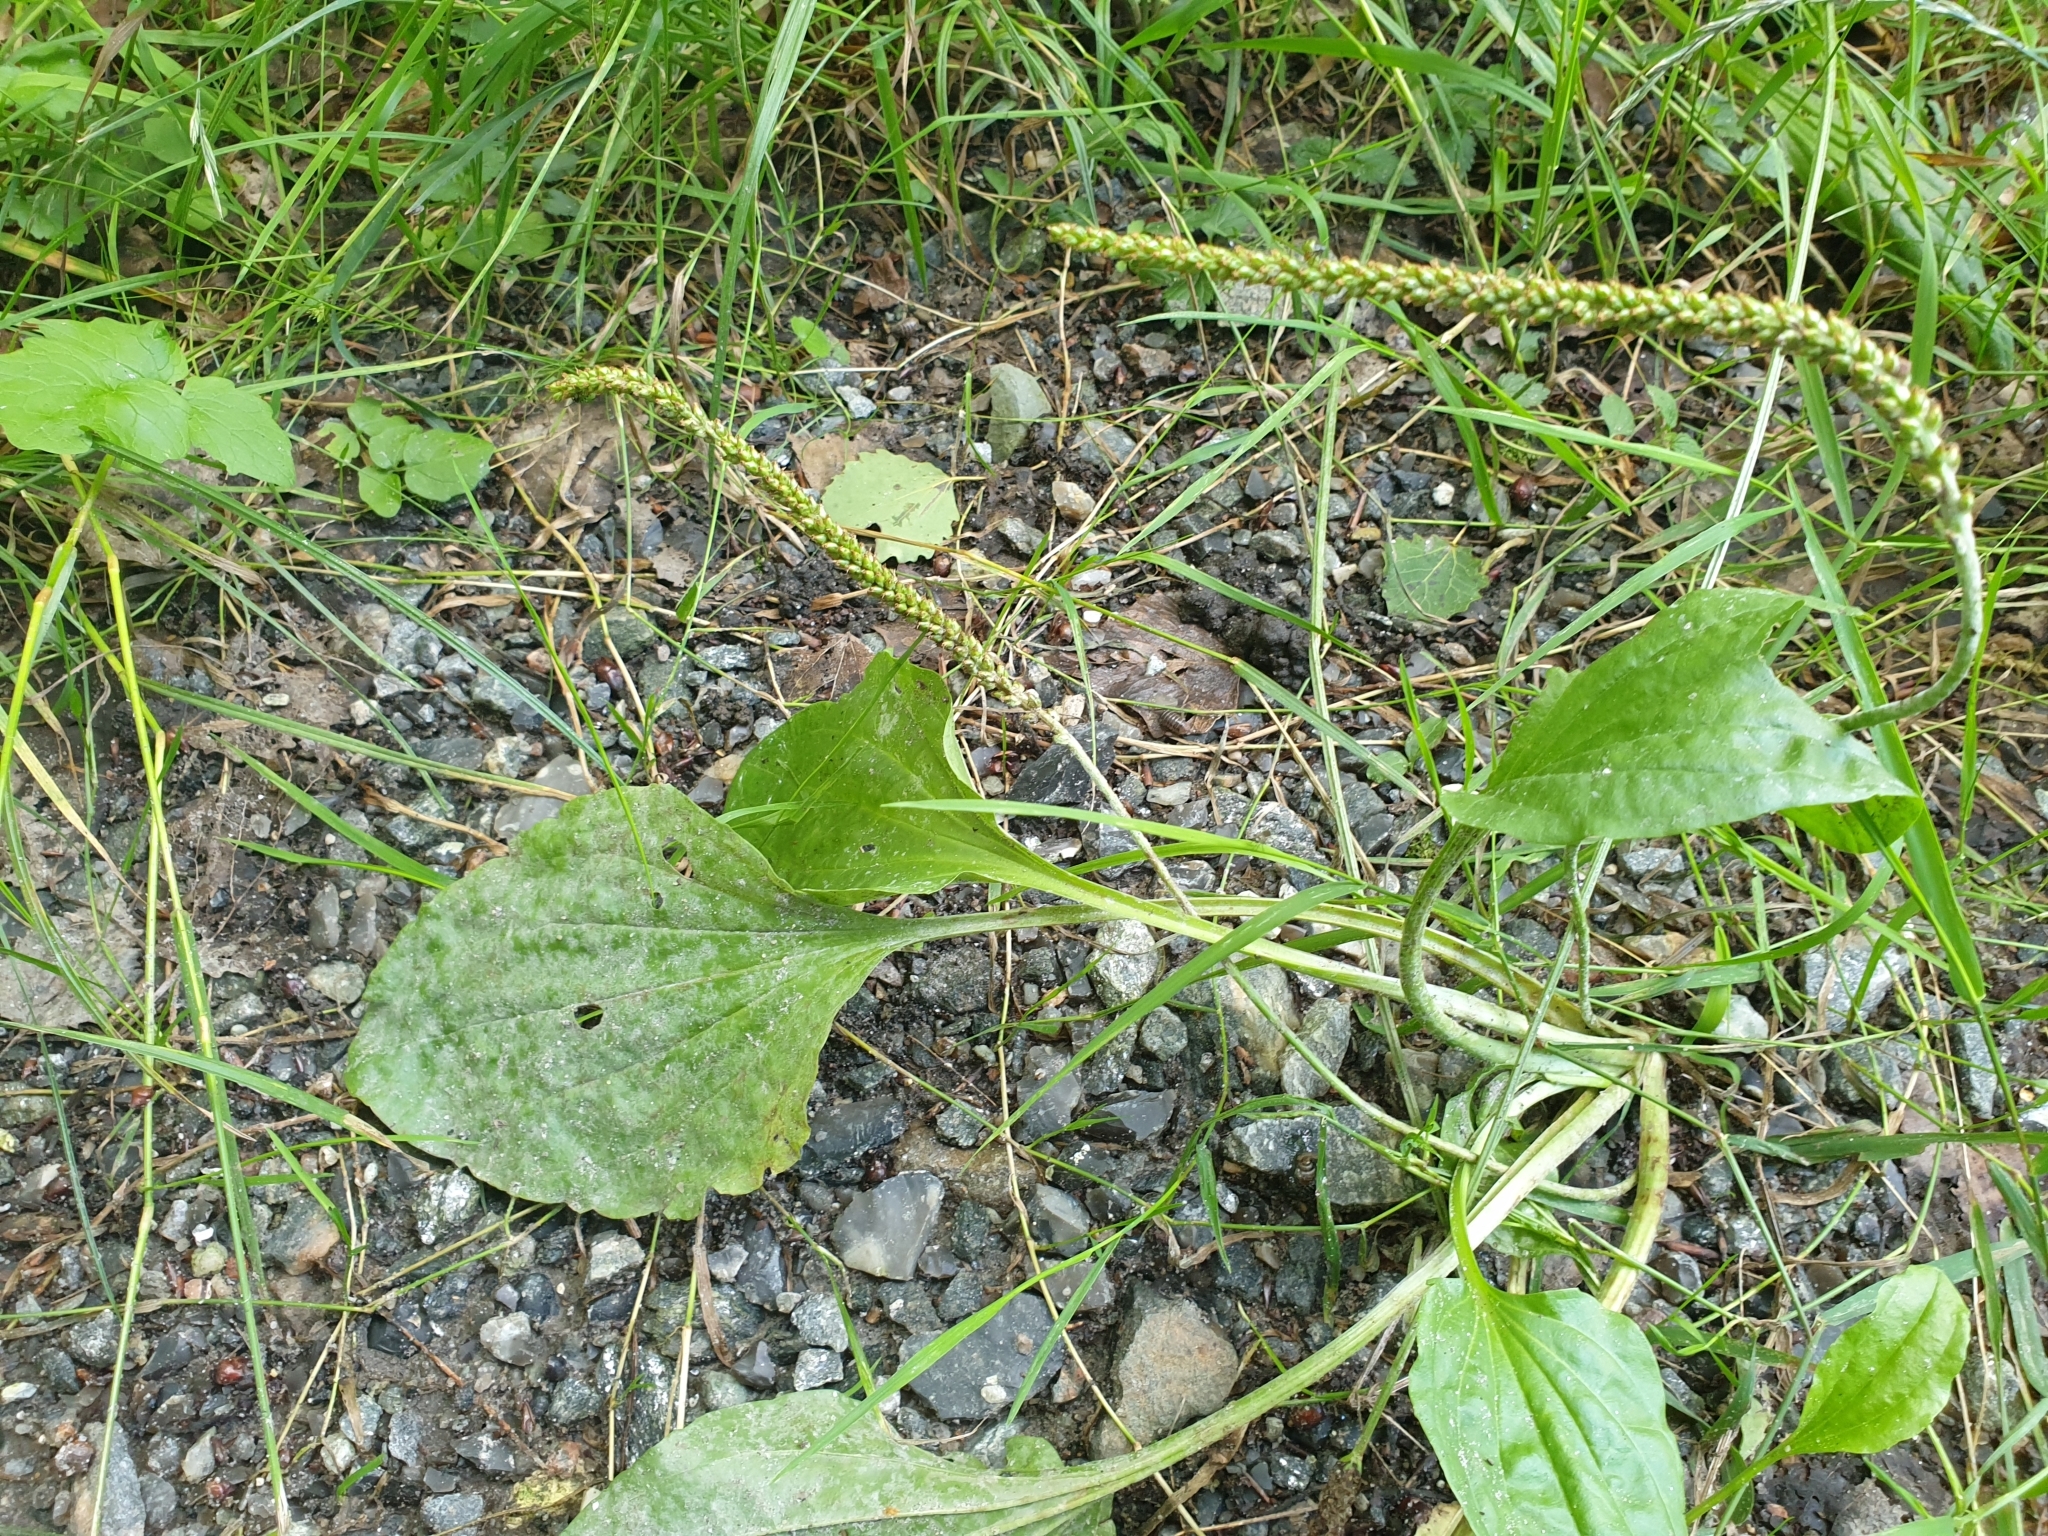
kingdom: Plantae
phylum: Tracheophyta
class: Magnoliopsida
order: Lamiales
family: Plantaginaceae
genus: Plantago
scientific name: Plantago major
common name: Common plantain
